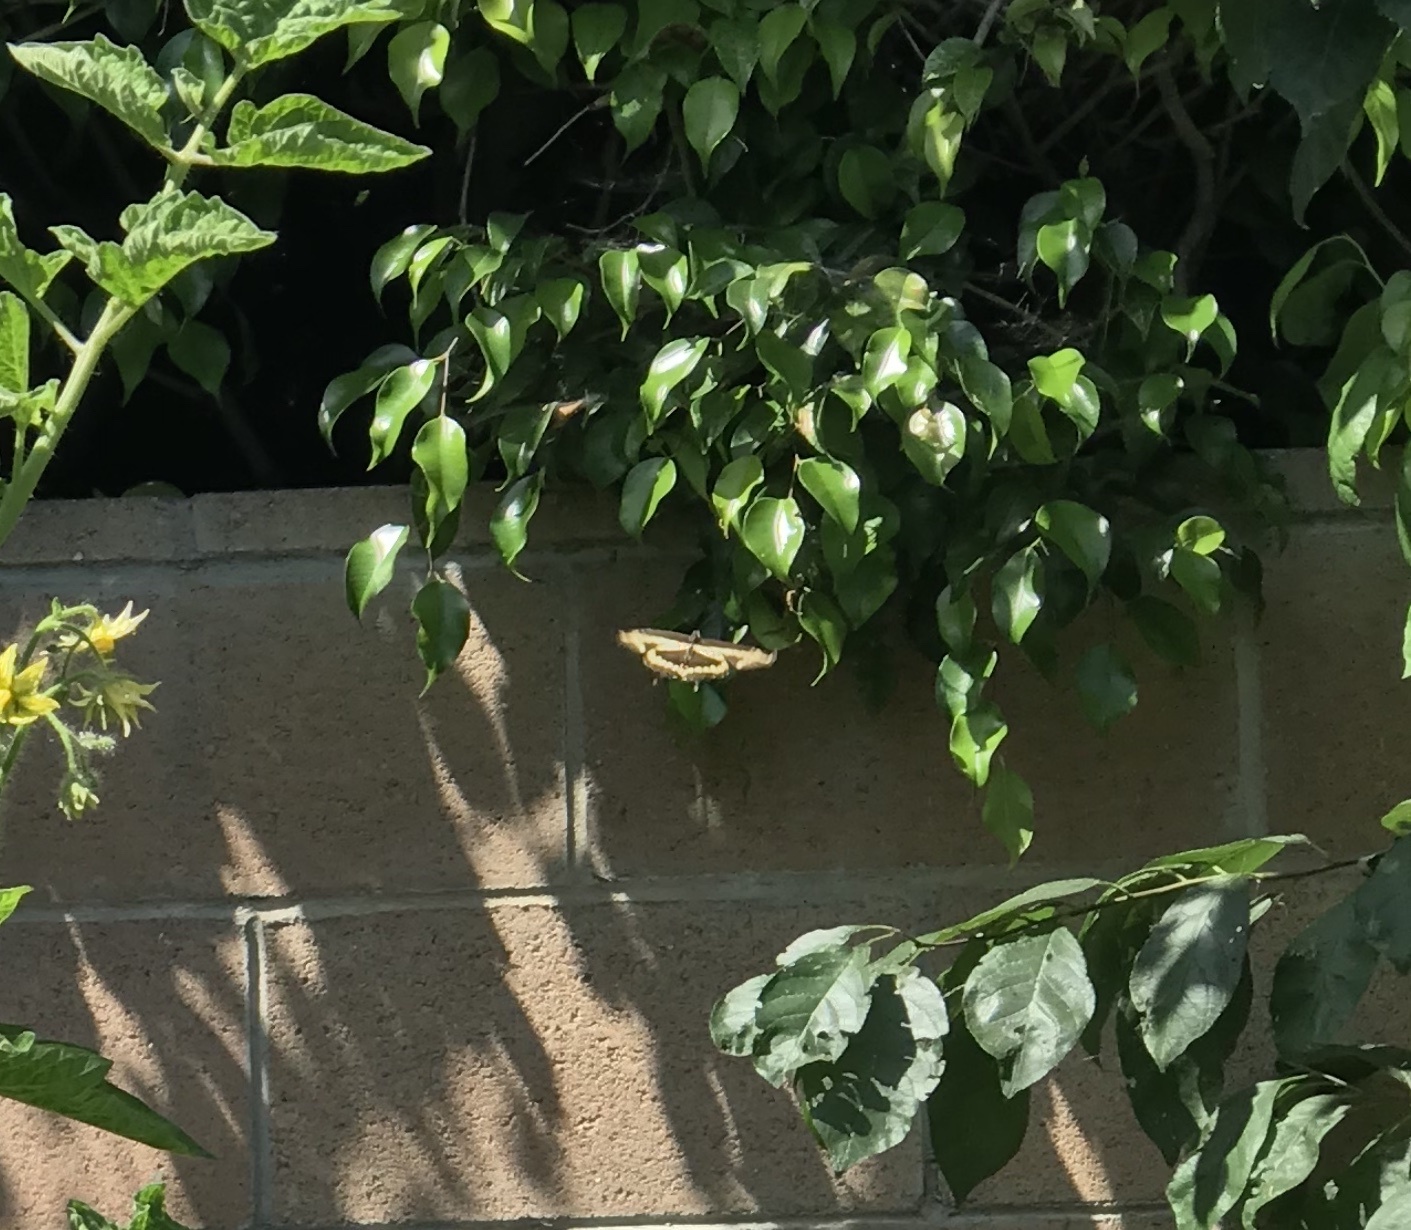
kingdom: Animalia
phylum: Arthropoda
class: Insecta
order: Lepidoptera
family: Papilionidae
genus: Papilio
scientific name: Papilio rumiko
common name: Western giant swallowtail
